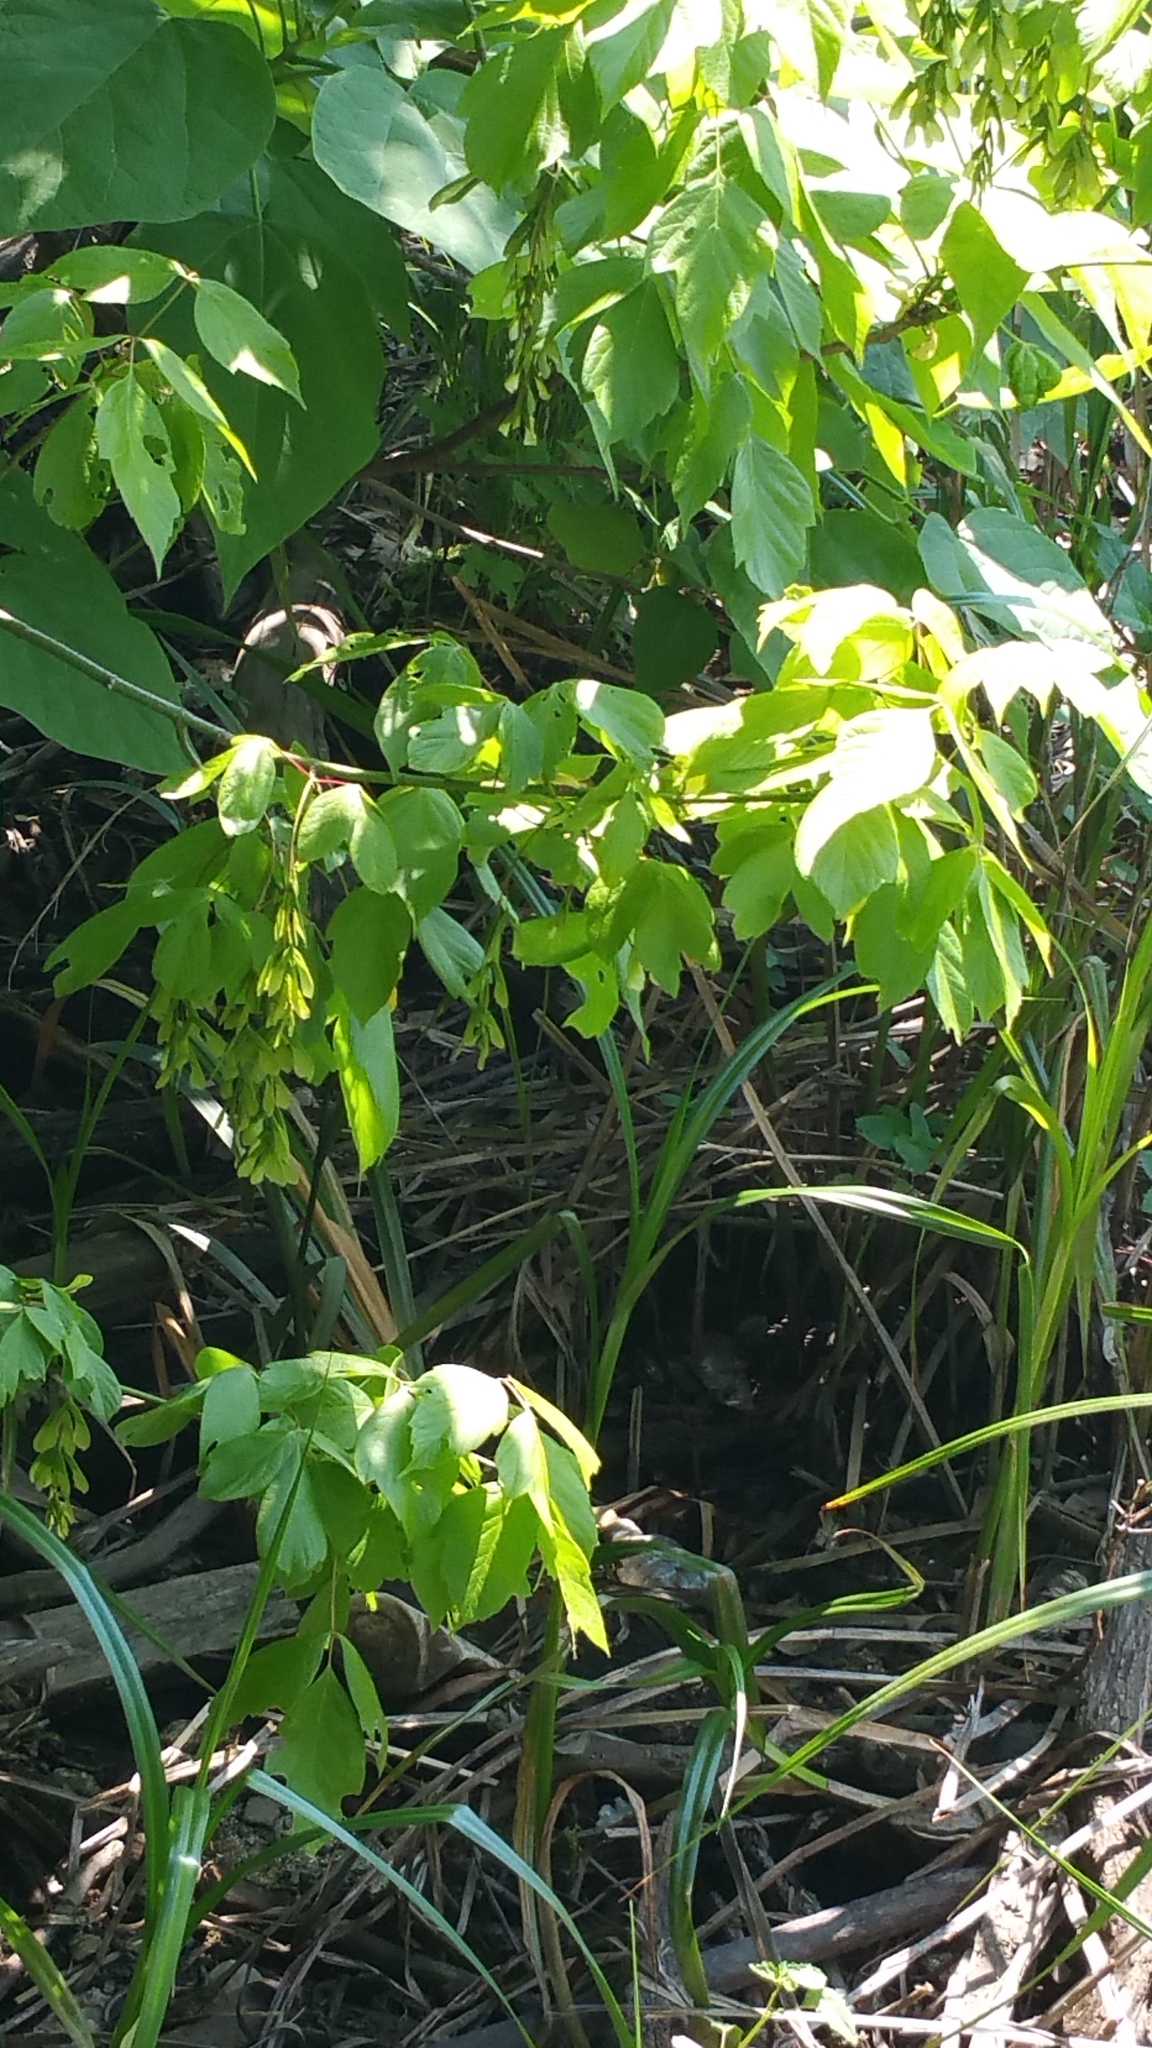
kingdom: Plantae
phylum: Tracheophyta
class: Magnoliopsida
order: Sapindales
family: Sapindaceae
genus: Acer
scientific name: Acer negundo
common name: Ashleaf maple
